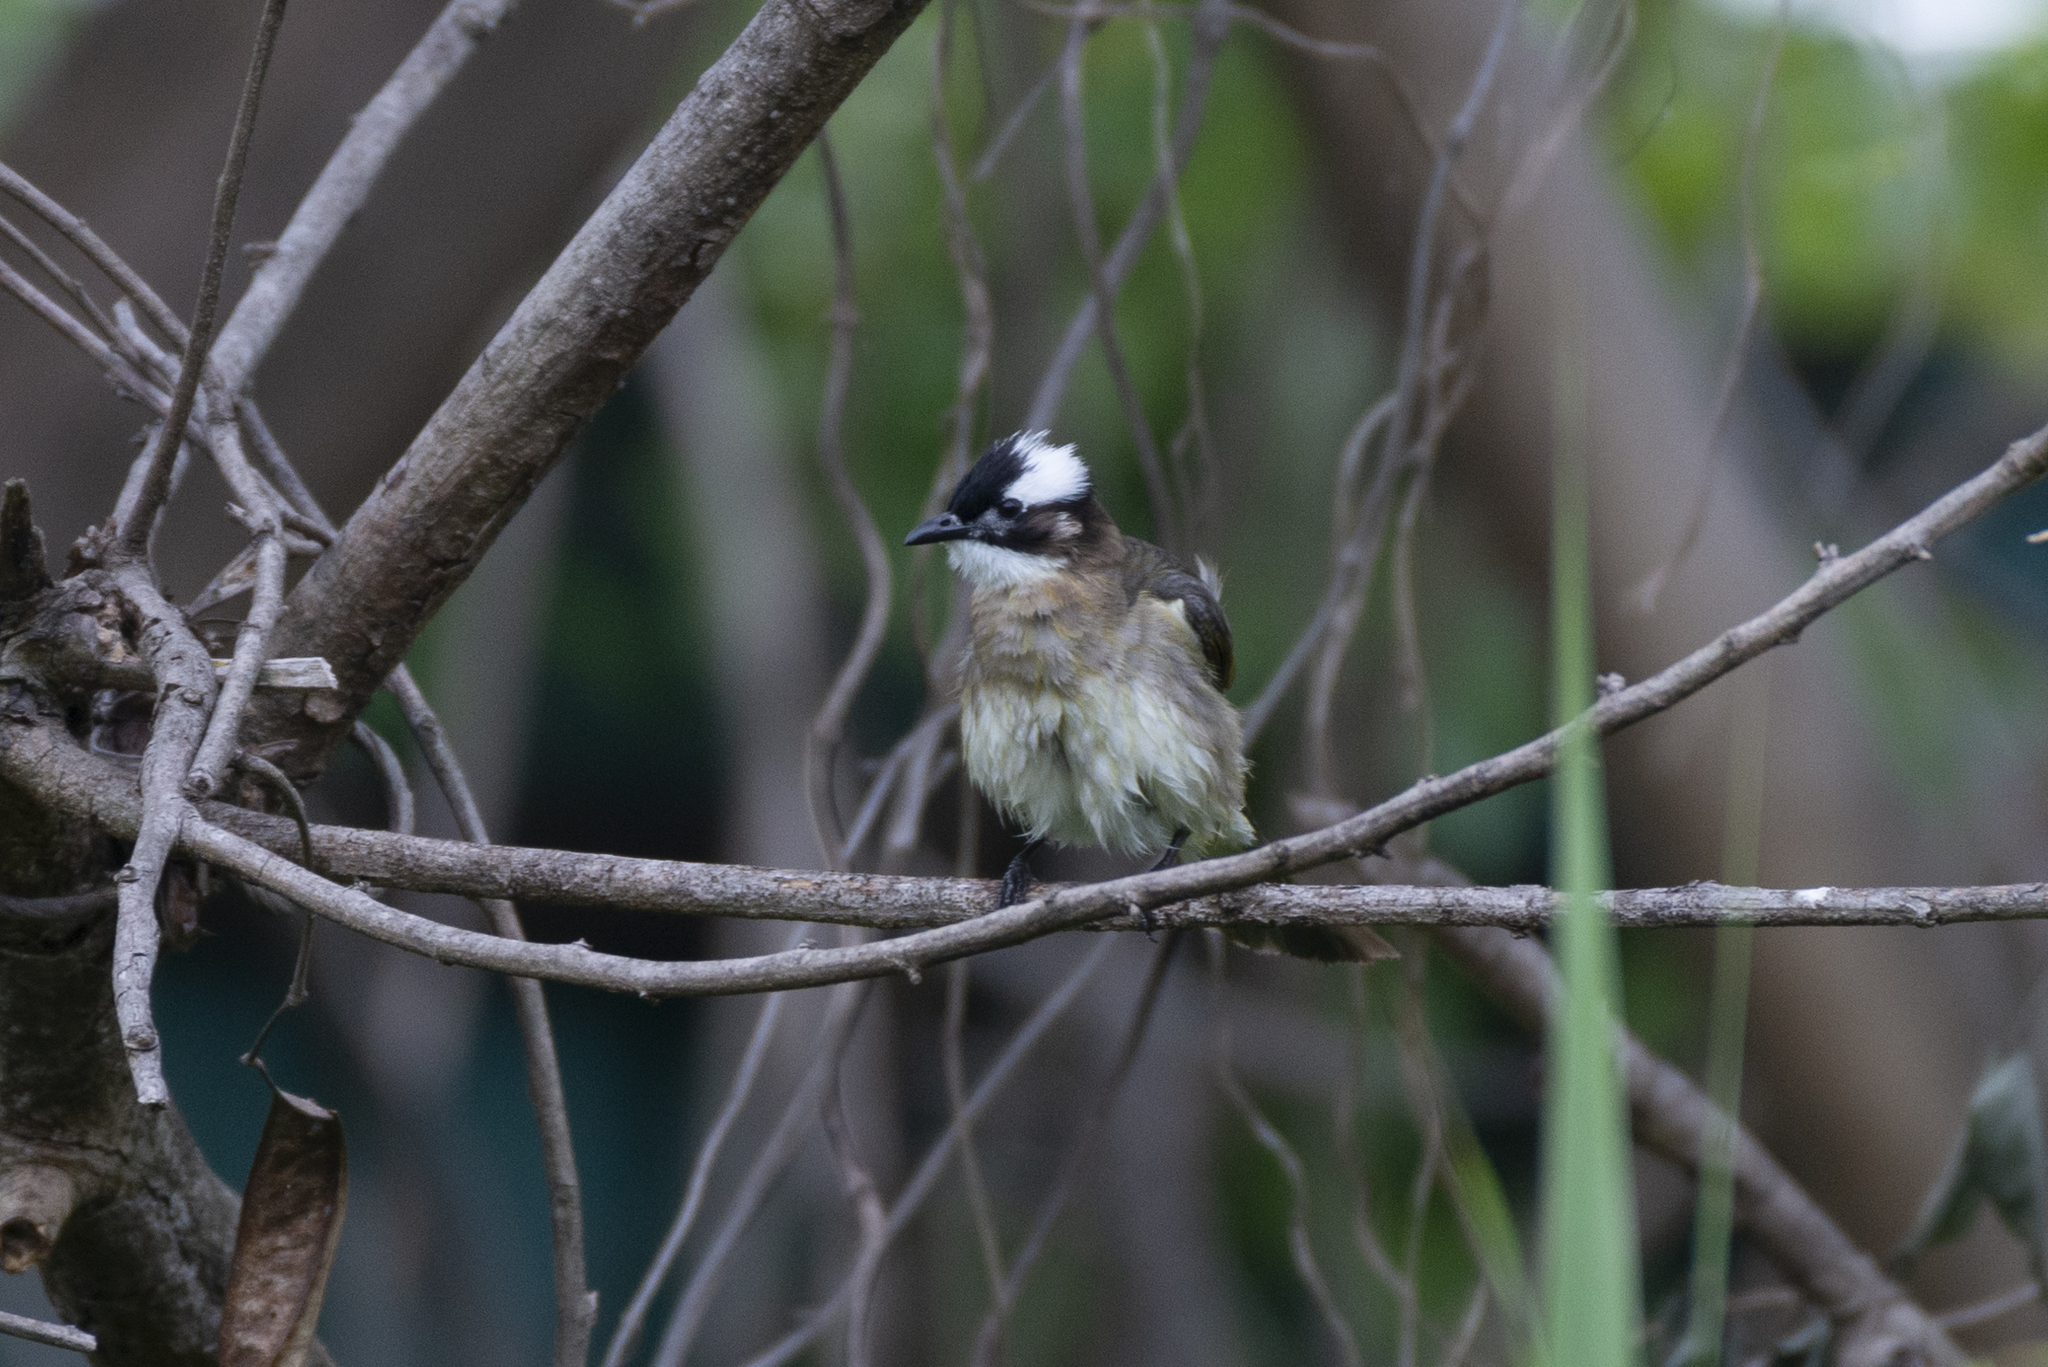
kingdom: Animalia
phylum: Chordata
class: Aves
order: Passeriformes
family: Pycnonotidae
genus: Pycnonotus
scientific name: Pycnonotus sinensis
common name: Light-vented bulbul
